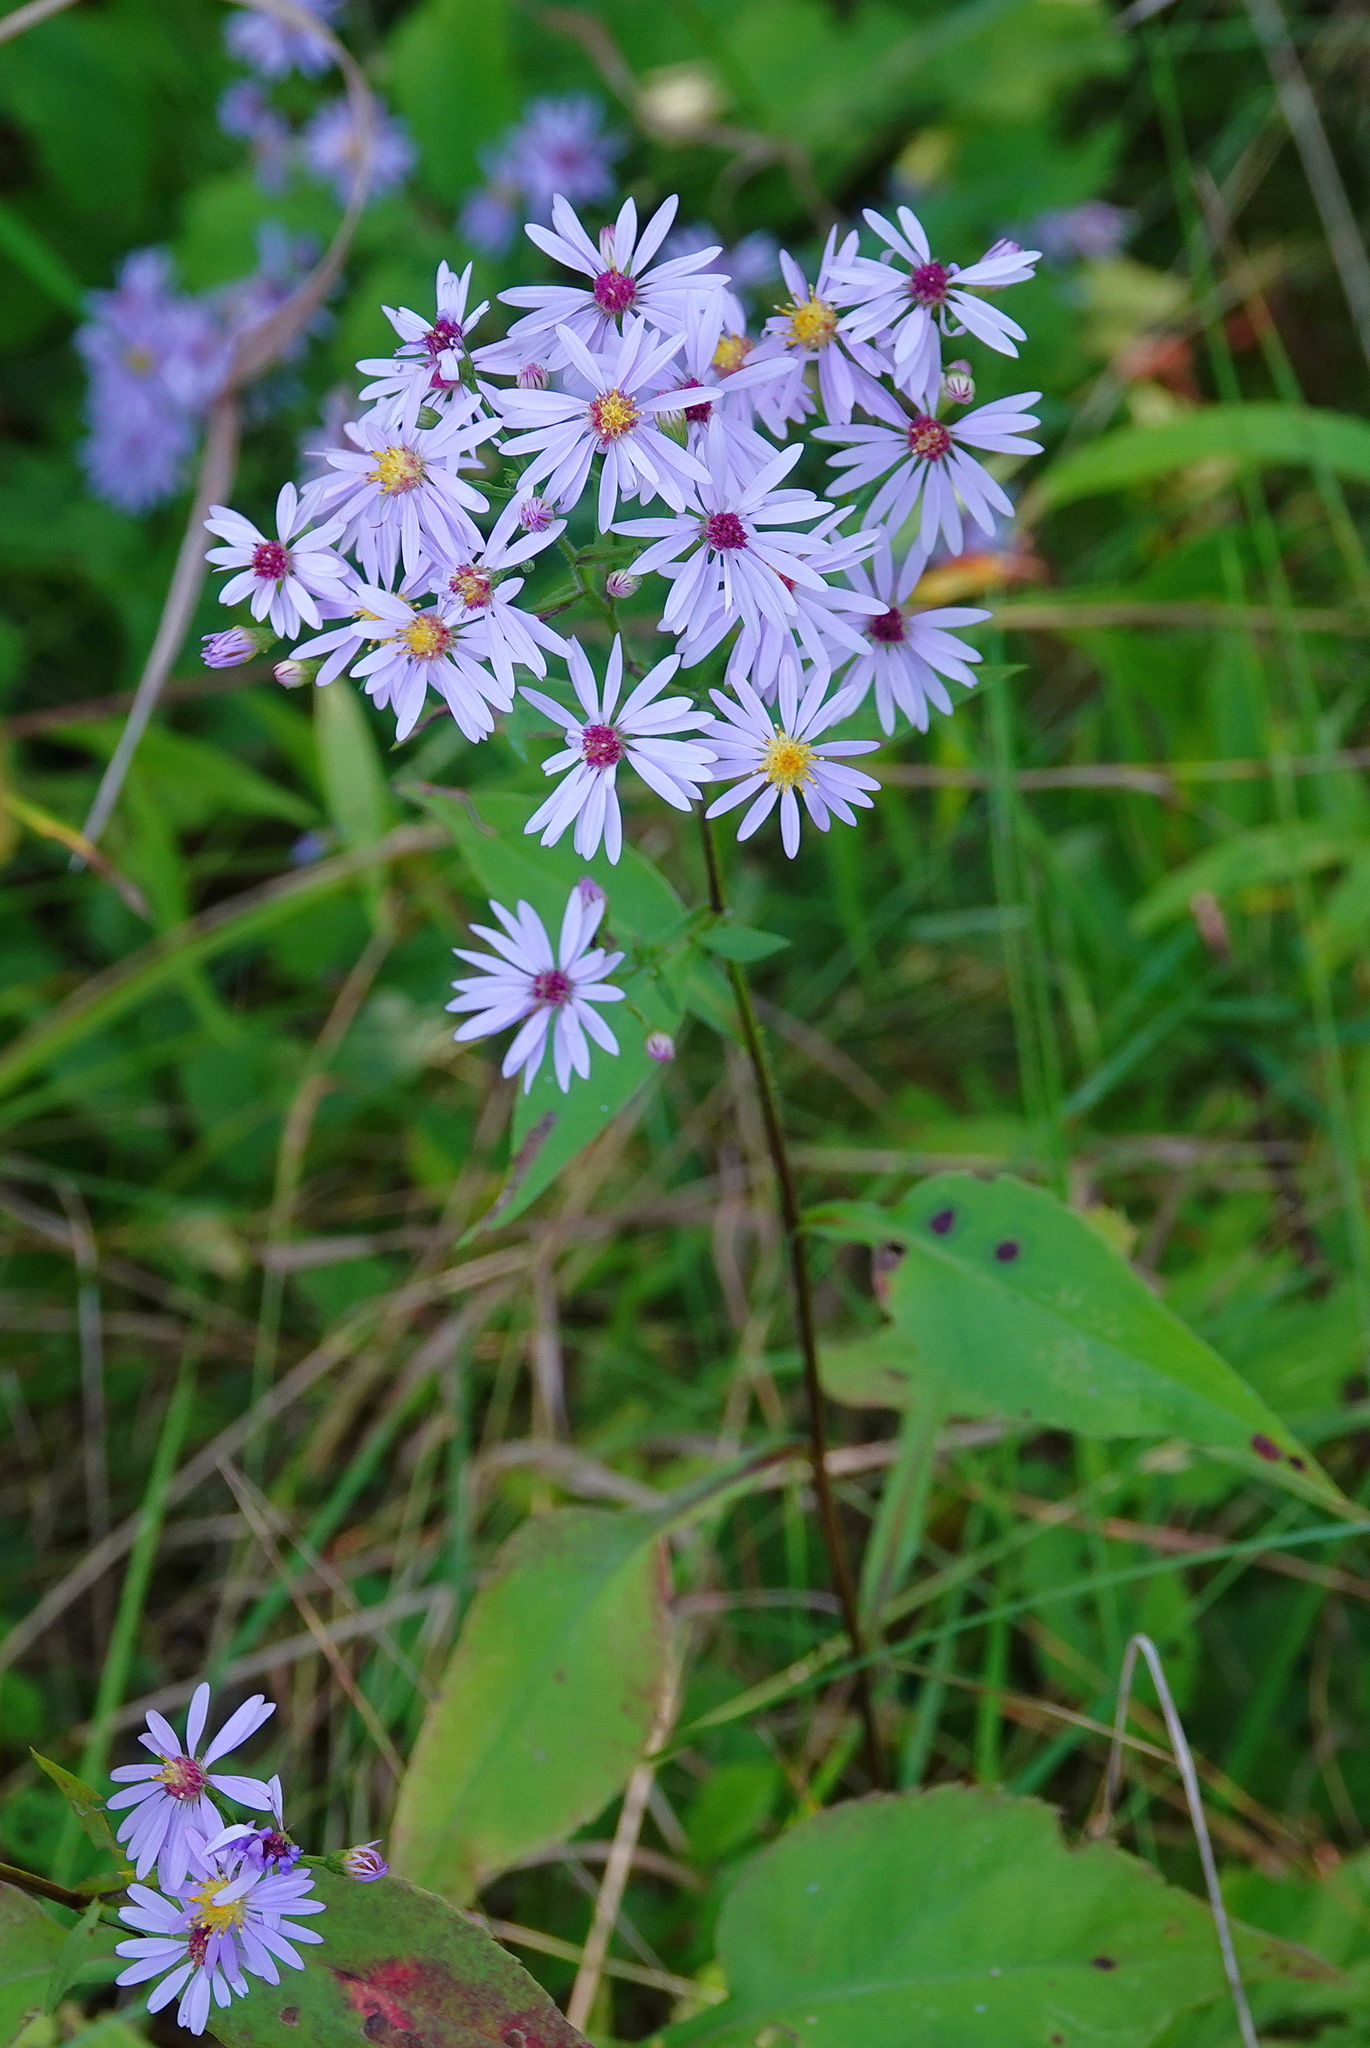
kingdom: Plantae
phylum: Tracheophyta
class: Magnoliopsida
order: Asterales
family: Asteraceae
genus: Symphyotrichum
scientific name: Symphyotrichum ciliolatum
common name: Fringed blue aster
